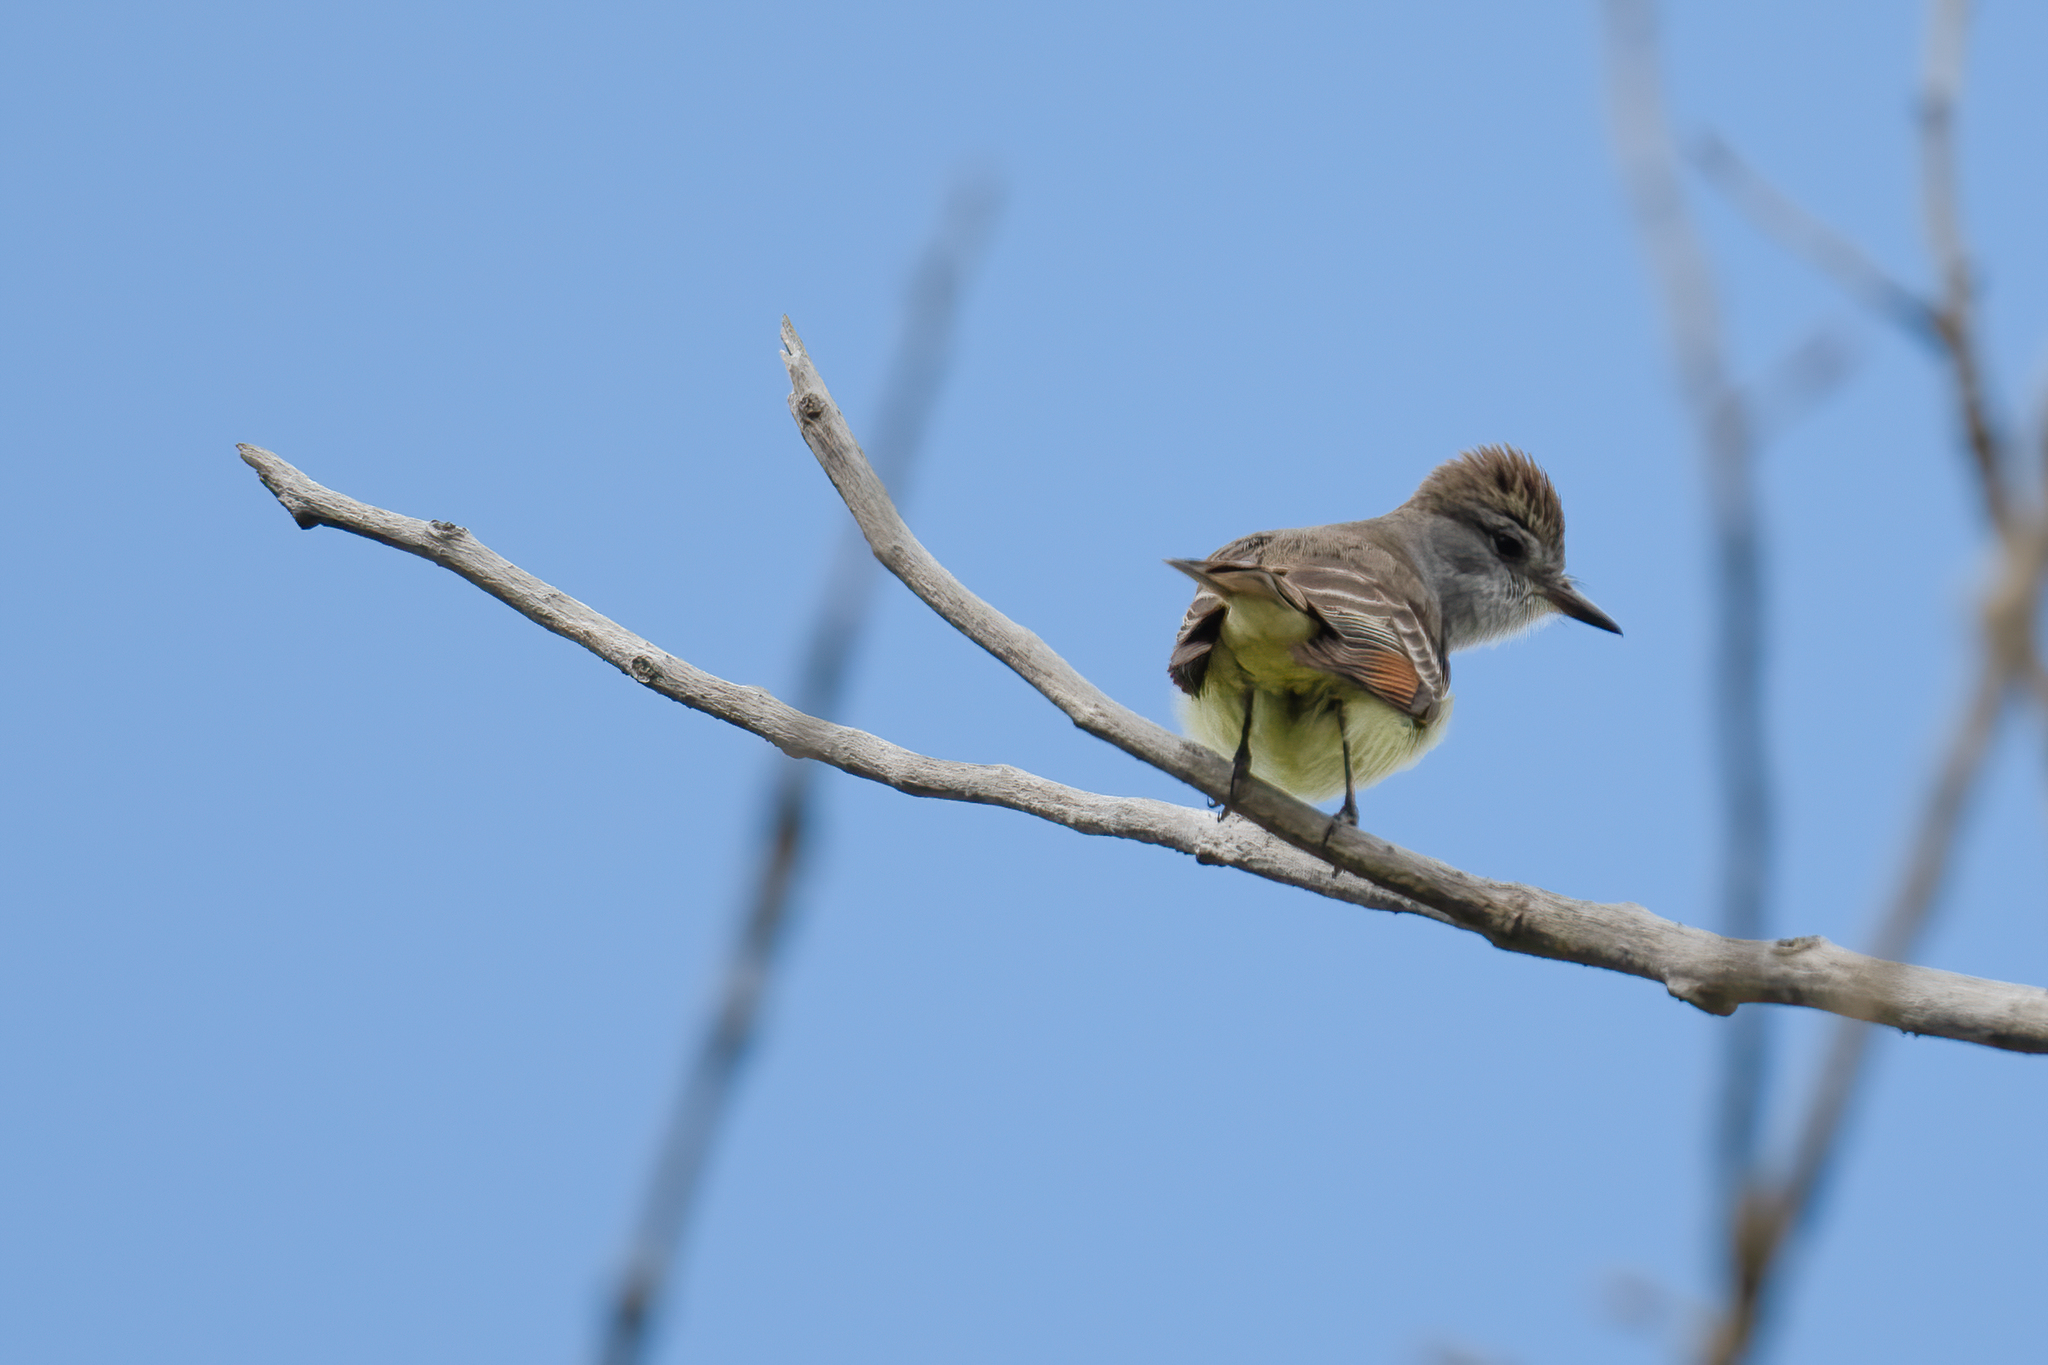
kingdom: Animalia
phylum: Chordata
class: Aves
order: Passeriformes
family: Tyrannidae
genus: Myiarchus
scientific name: Myiarchus cinerascens
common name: Ash-throated flycatcher
